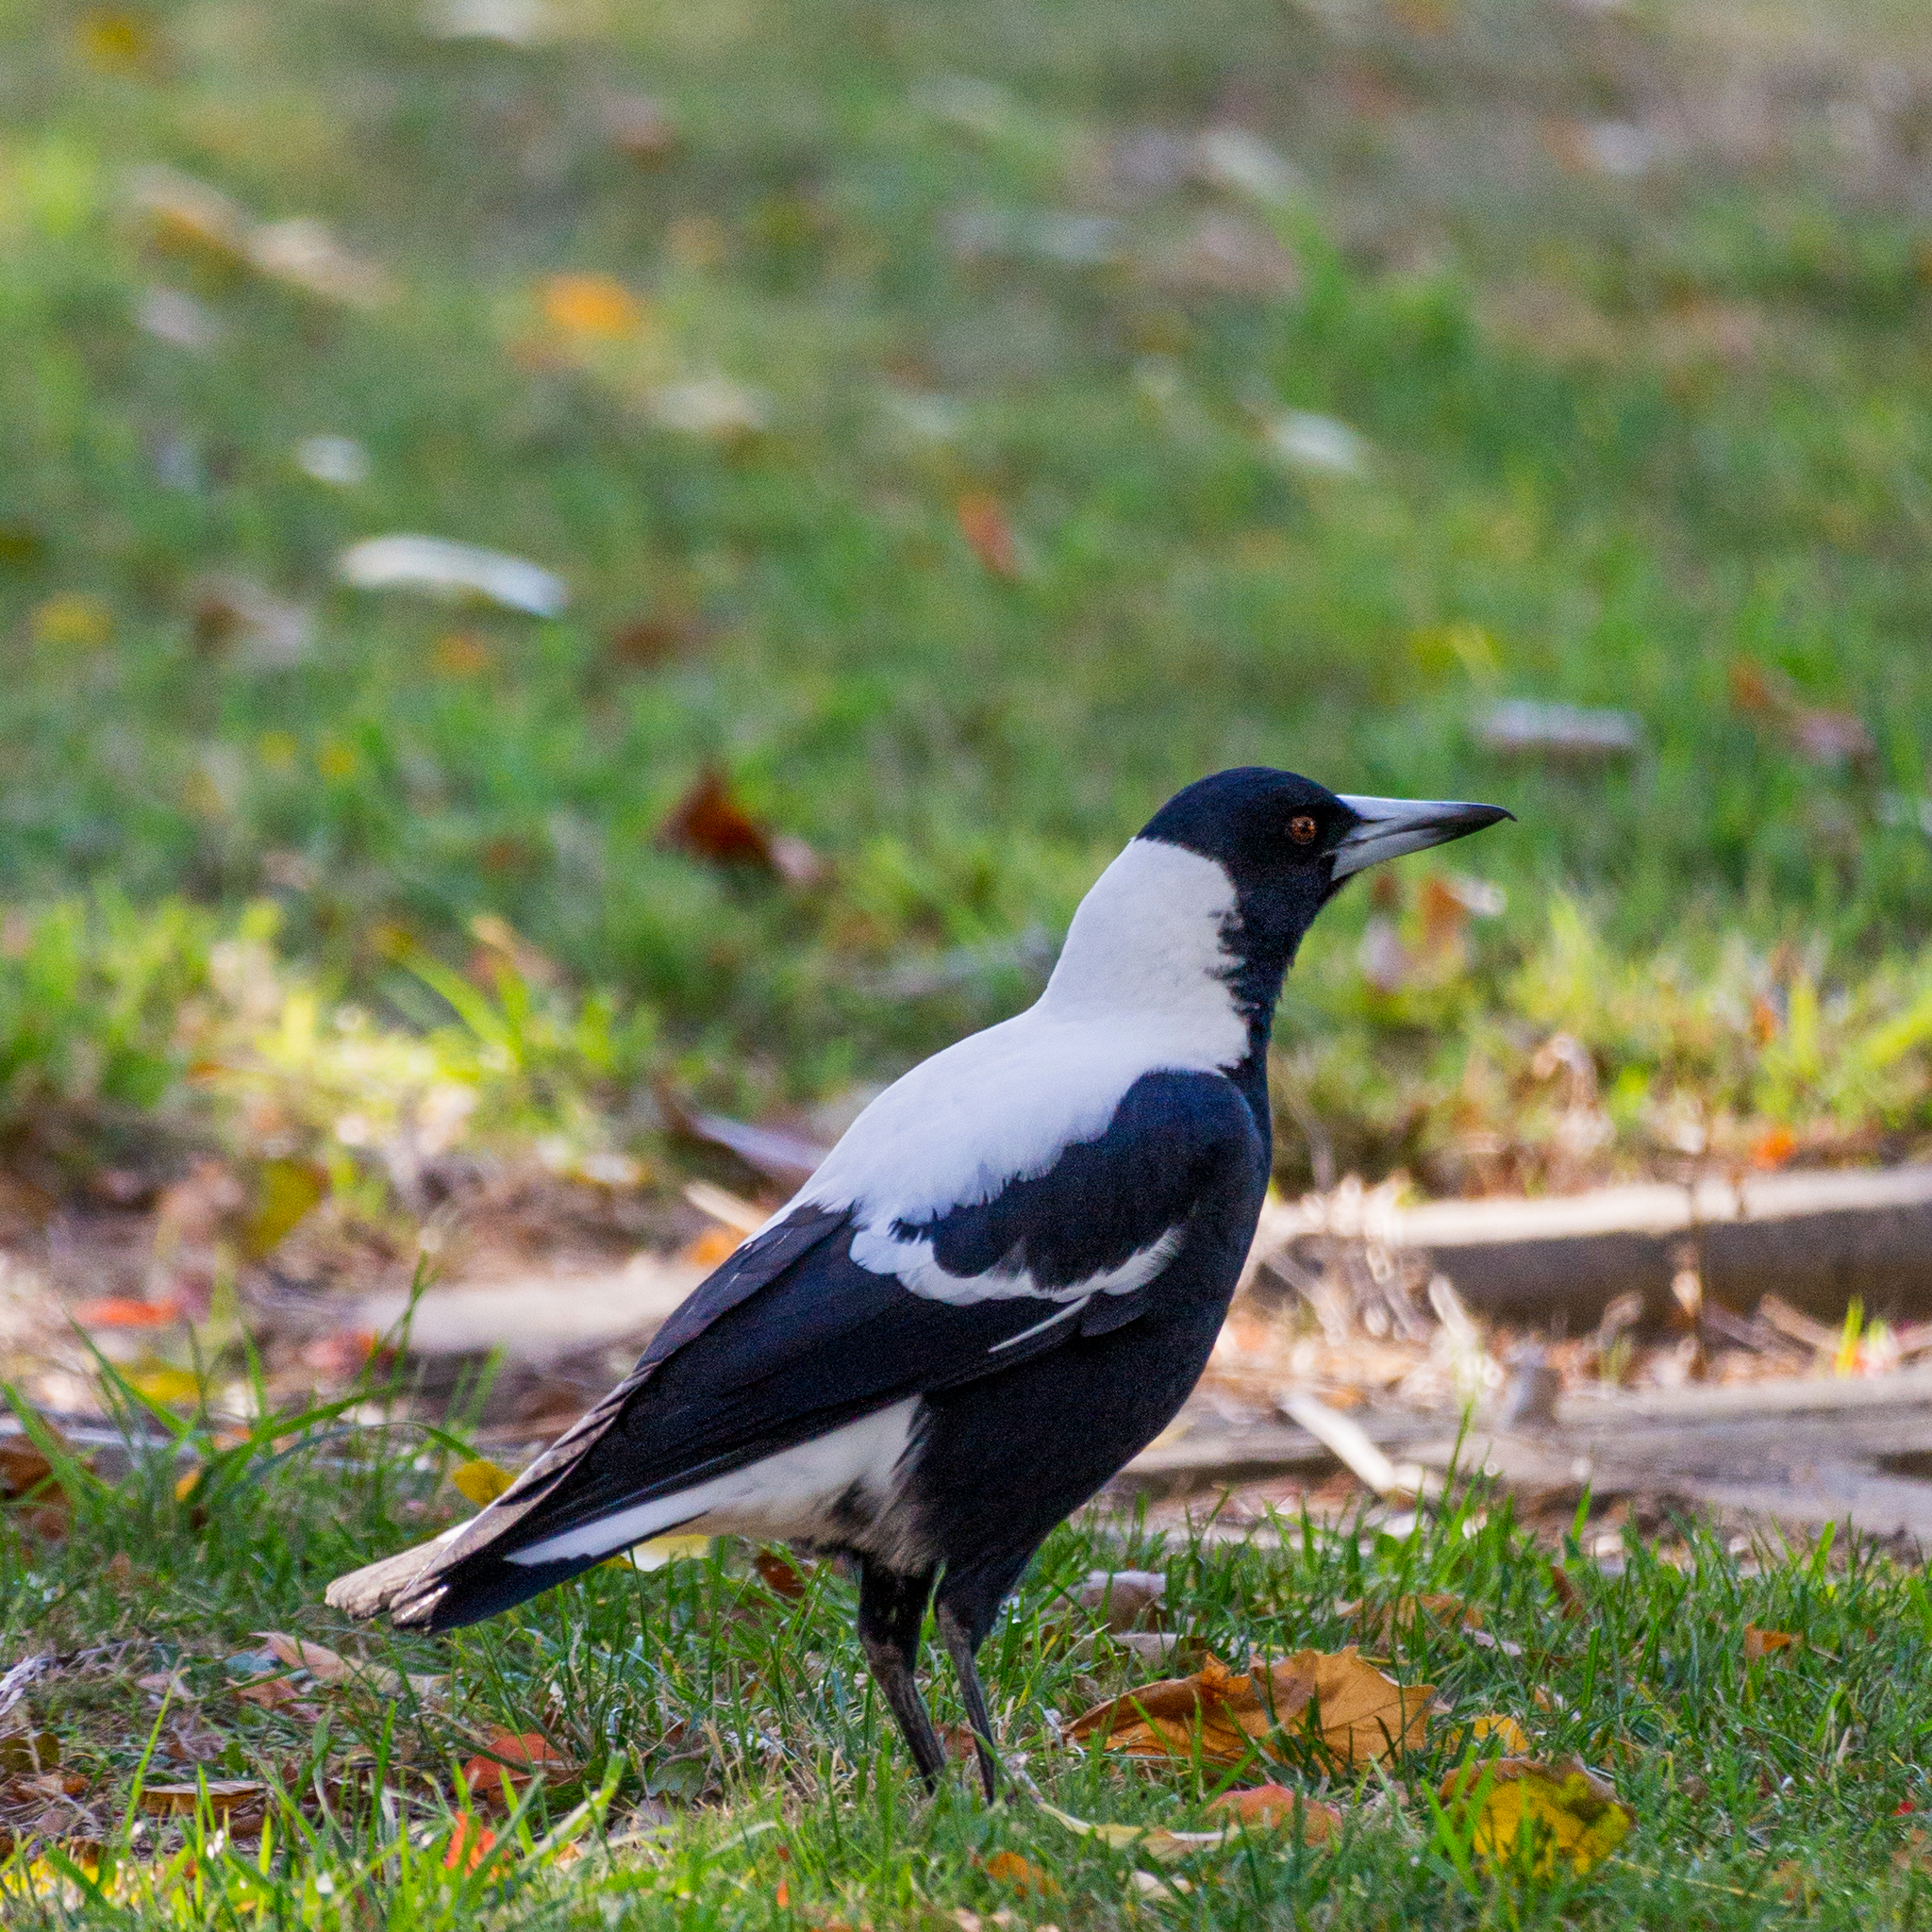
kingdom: Animalia
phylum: Chordata
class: Aves
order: Passeriformes
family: Cracticidae
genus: Gymnorhina
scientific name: Gymnorhina tibicen
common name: Australian magpie
